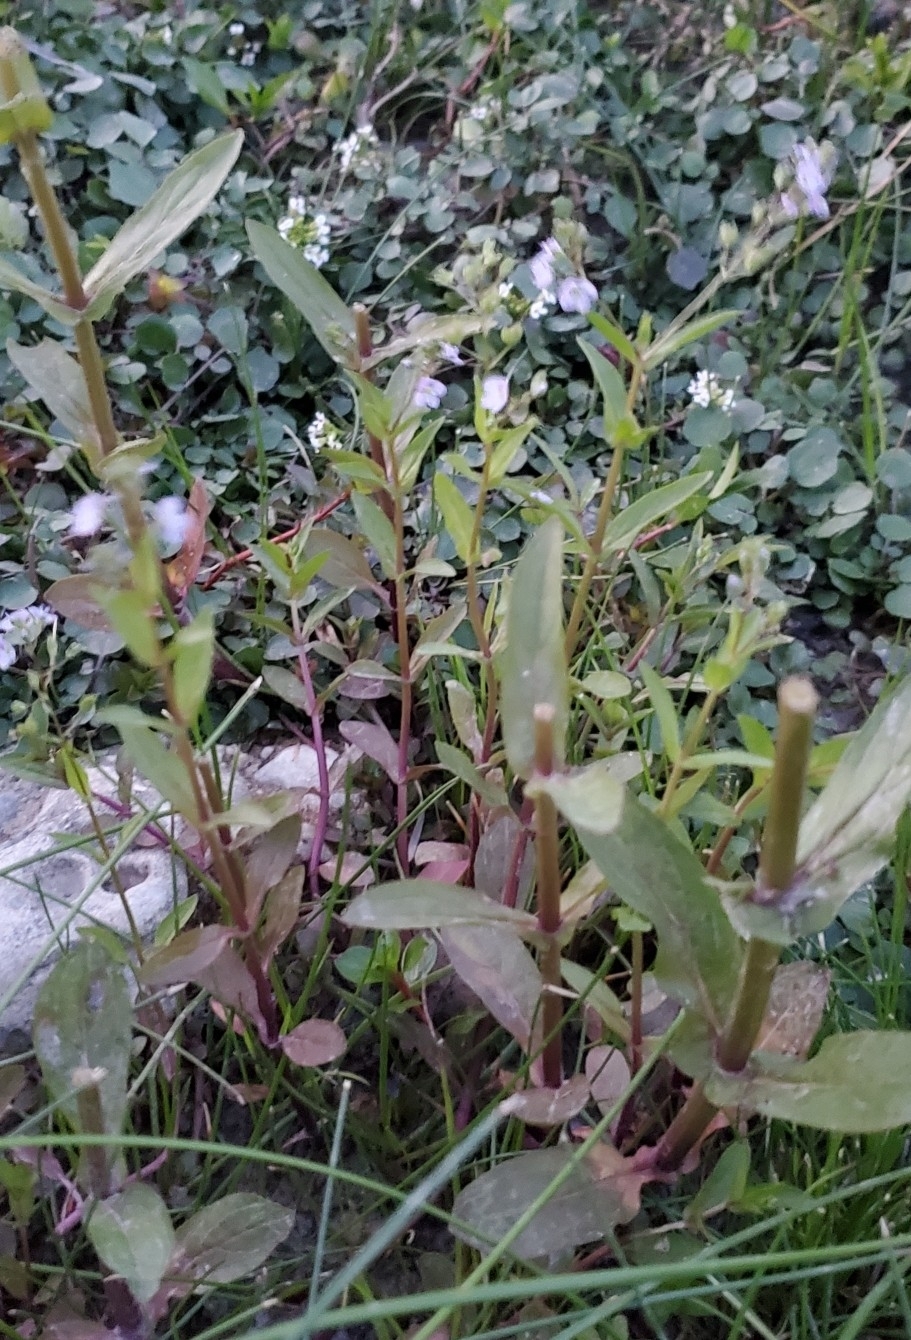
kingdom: Plantae
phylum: Tracheophyta
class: Magnoliopsida
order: Lamiales
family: Plantaginaceae
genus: Veronica
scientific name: Veronica anagallis-aquatica
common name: Water speedwell
